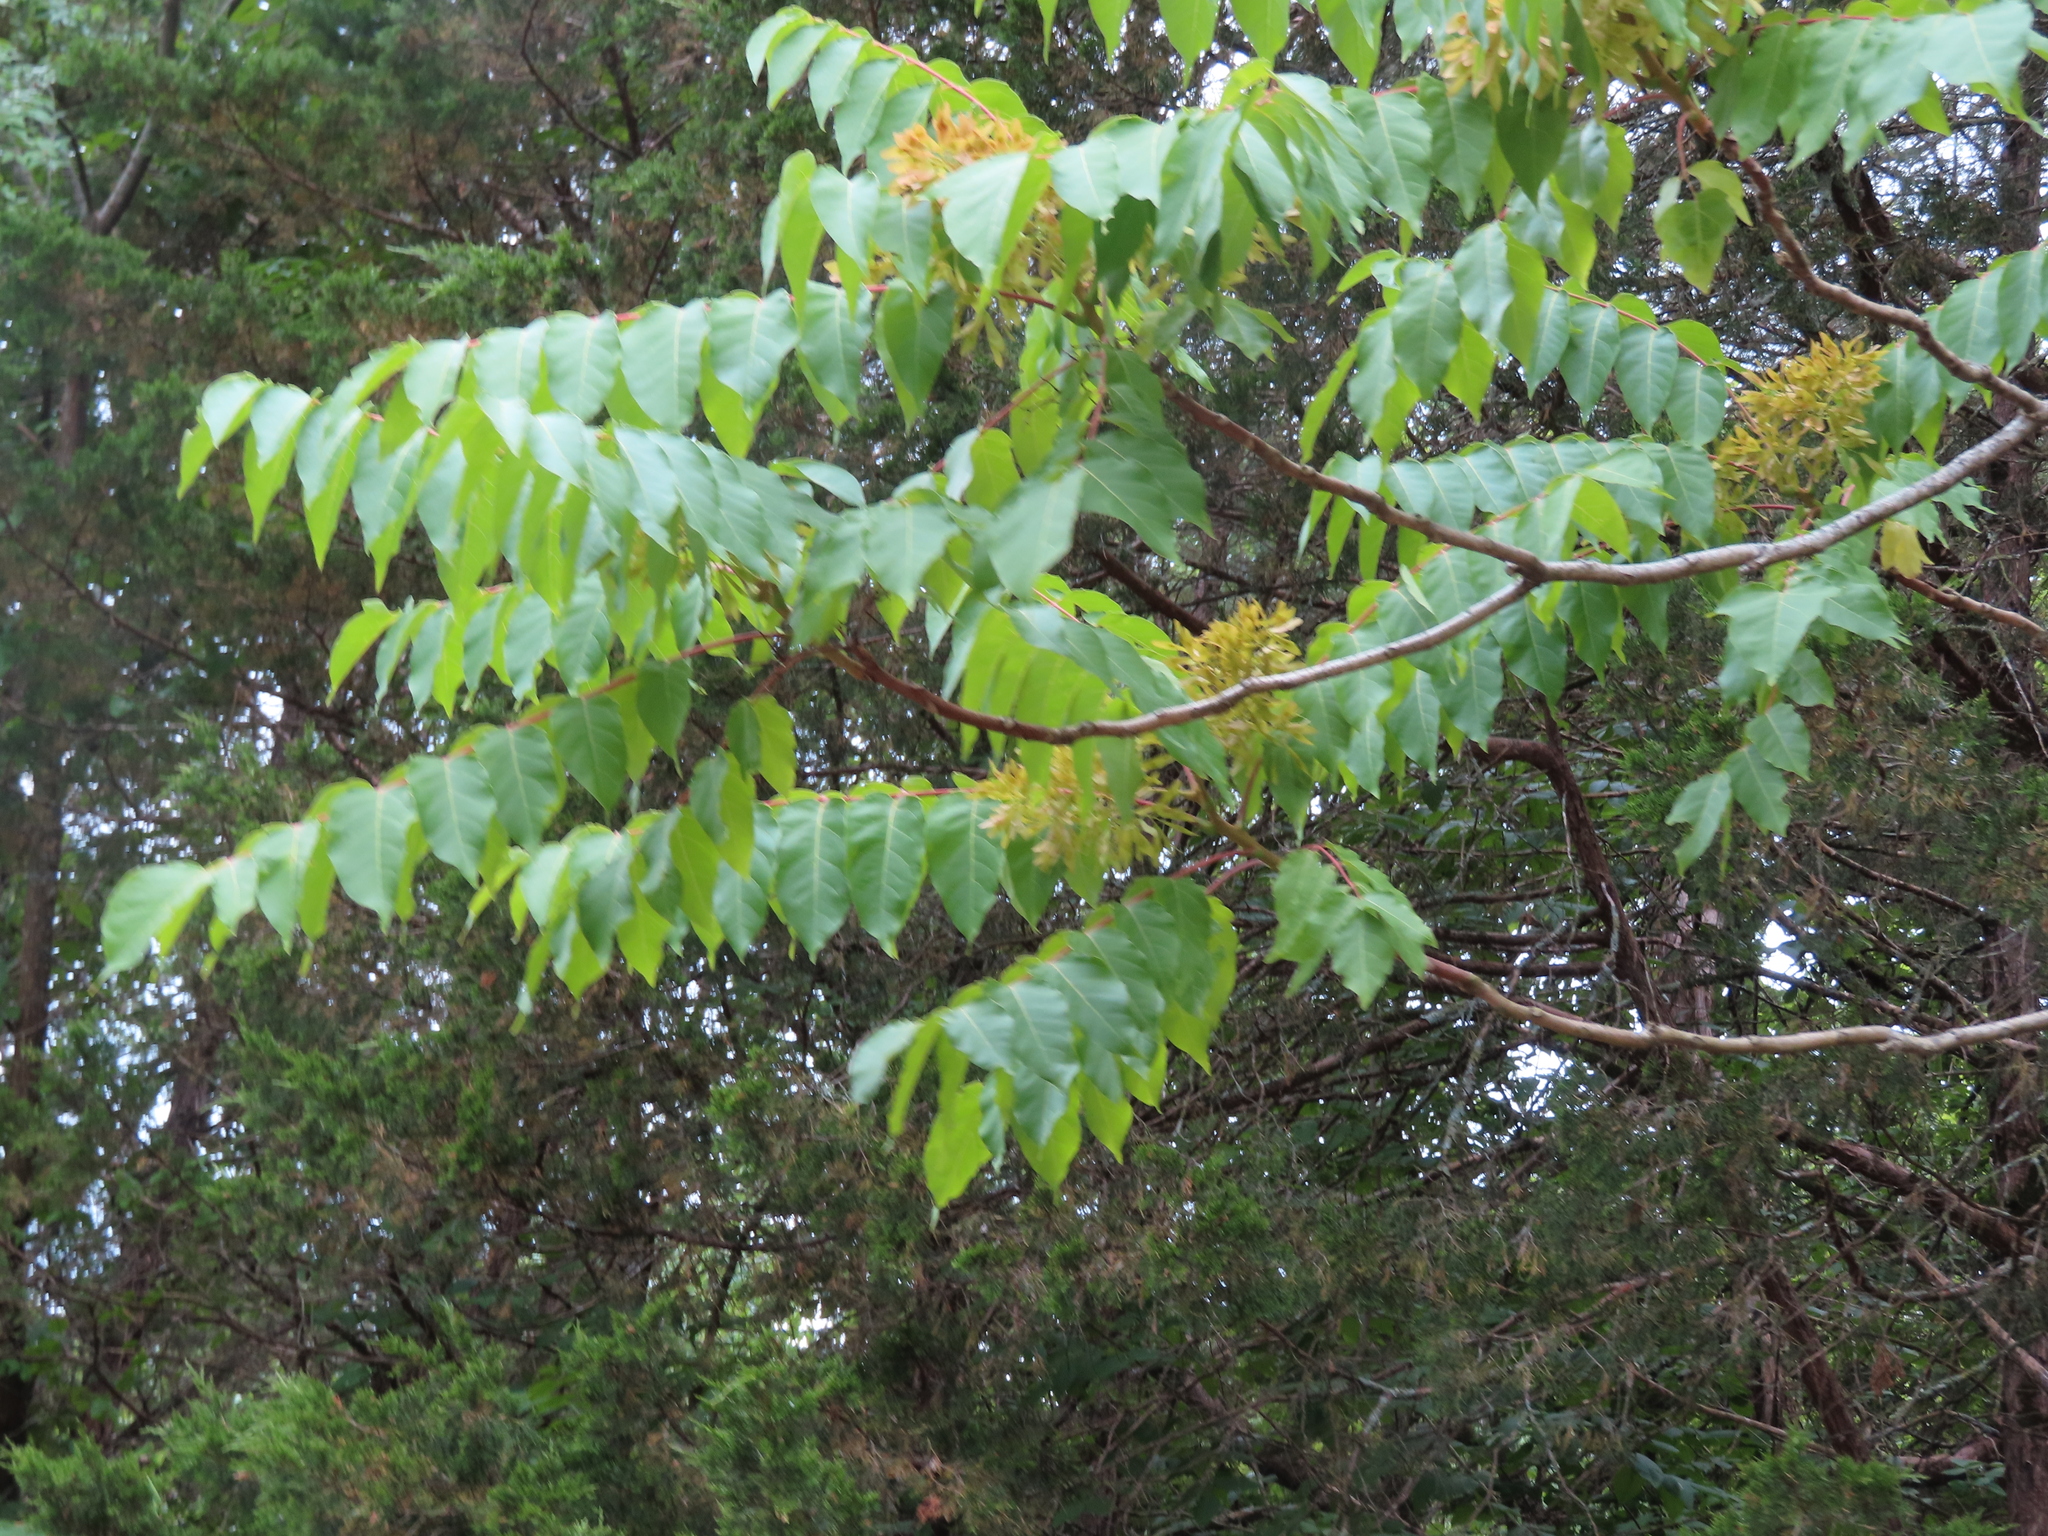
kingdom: Plantae
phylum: Tracheophyta
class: Magnoliopsida
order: Sapindales
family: Simaroubaceae
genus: Ailanthus
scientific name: Ailanthus altissima
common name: Tree-of-heaven
